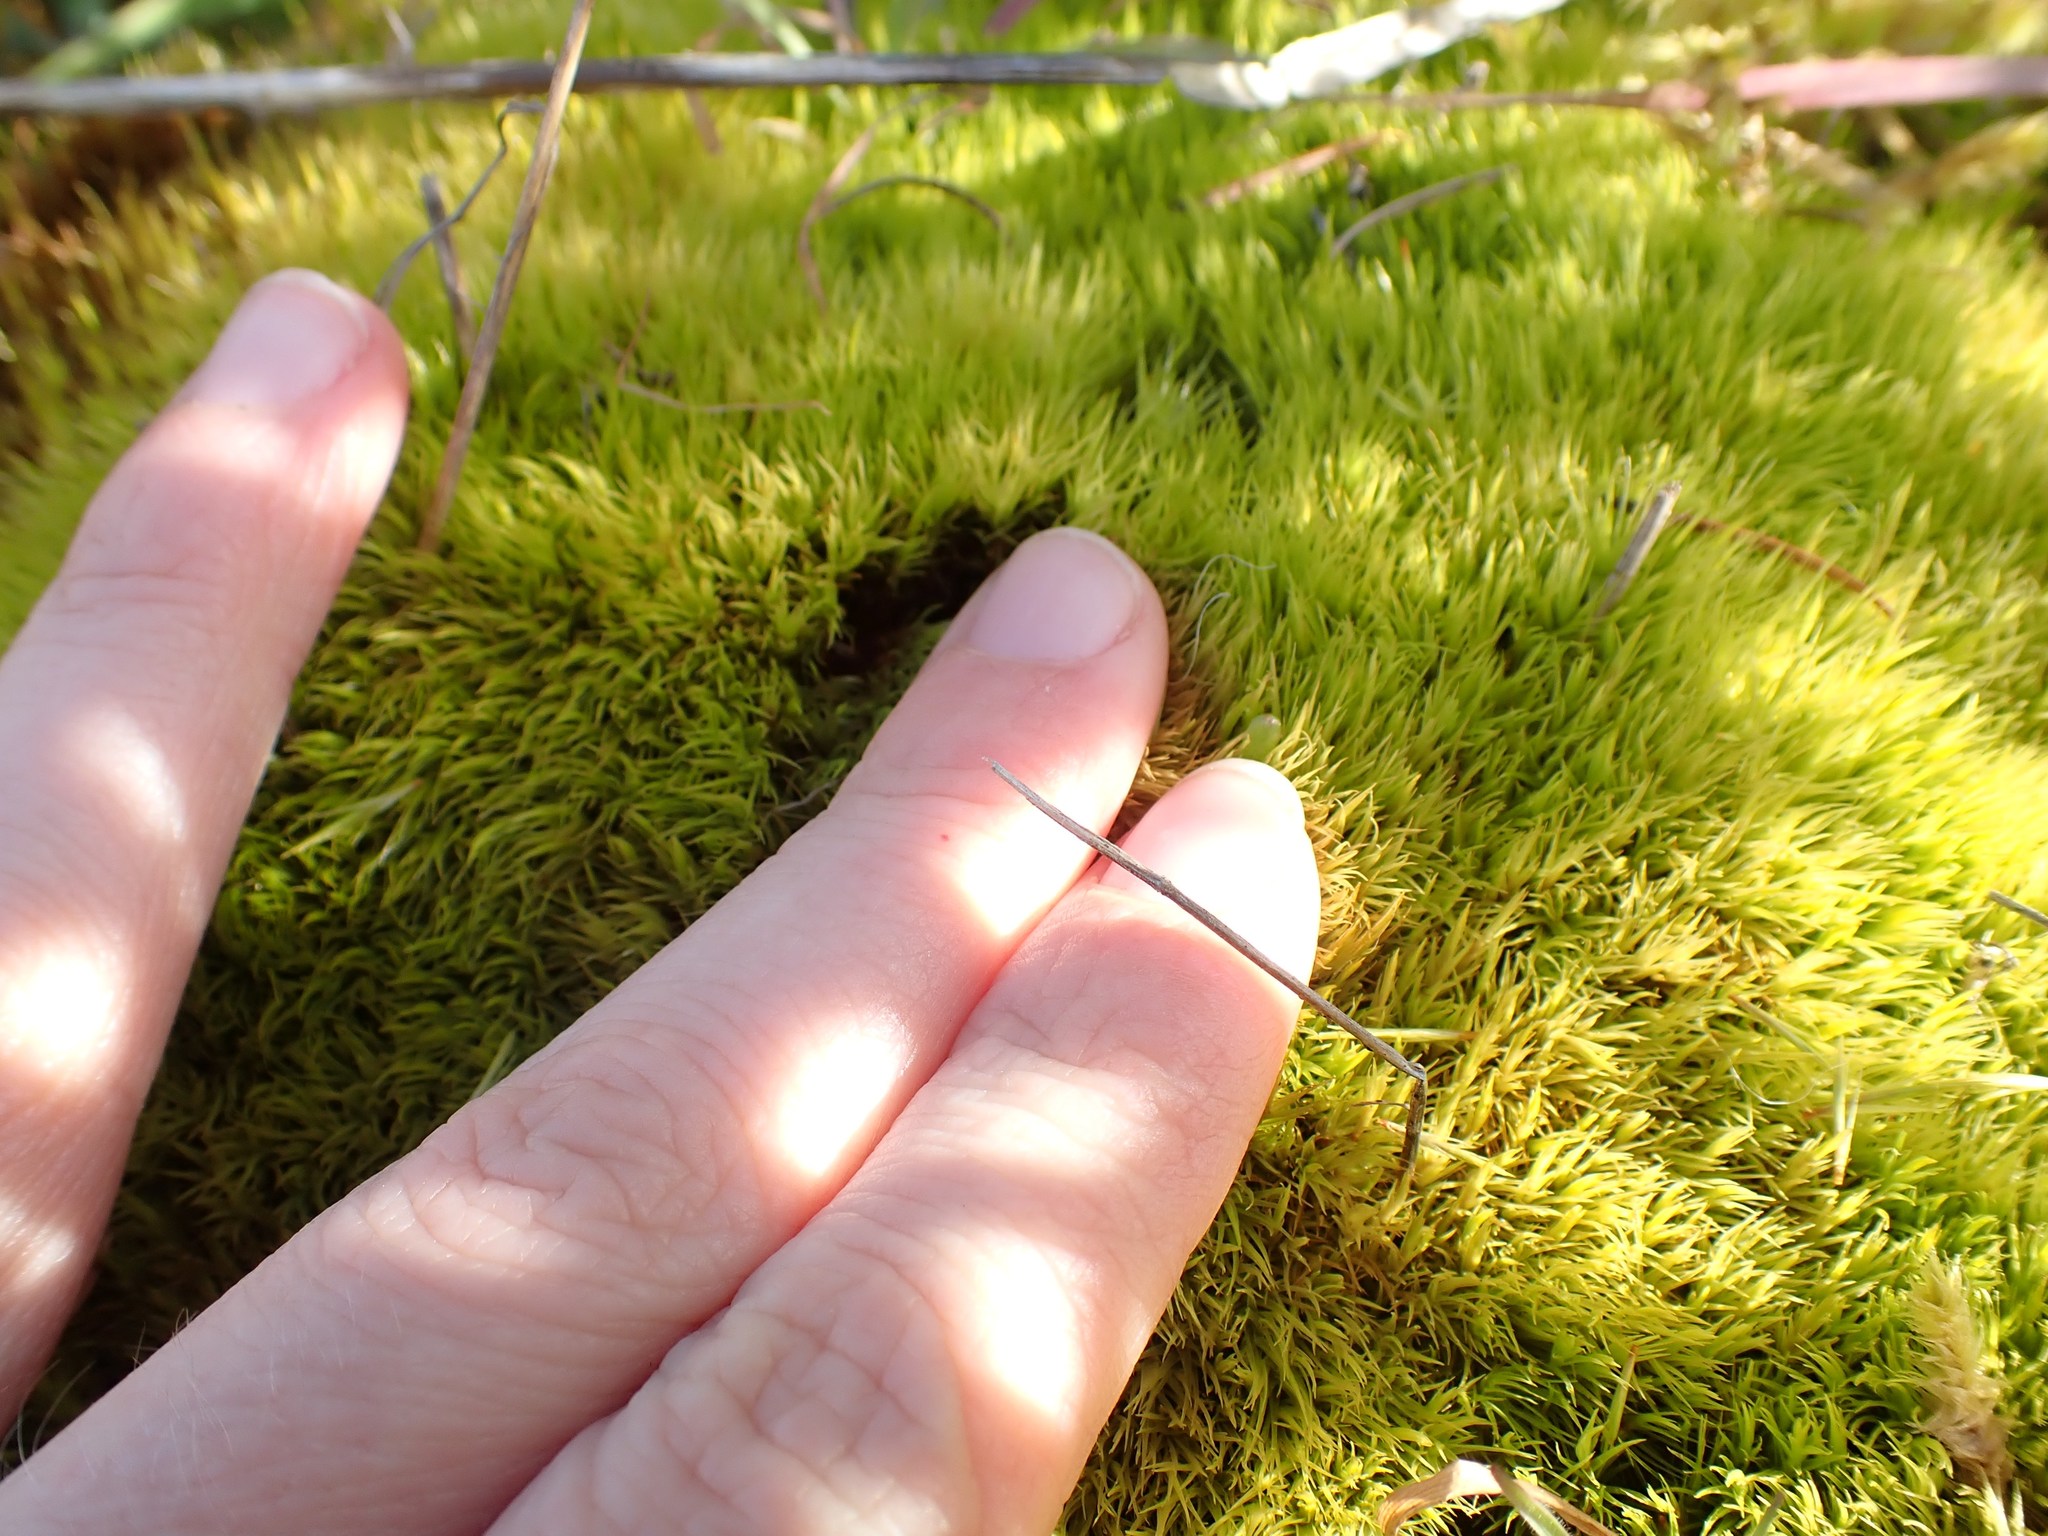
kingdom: Plantae
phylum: Bryophyta
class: Bryopsida
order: Dicranales
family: Dicranaceae
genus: Orthodicranum
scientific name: Orthodicranum tauricum
